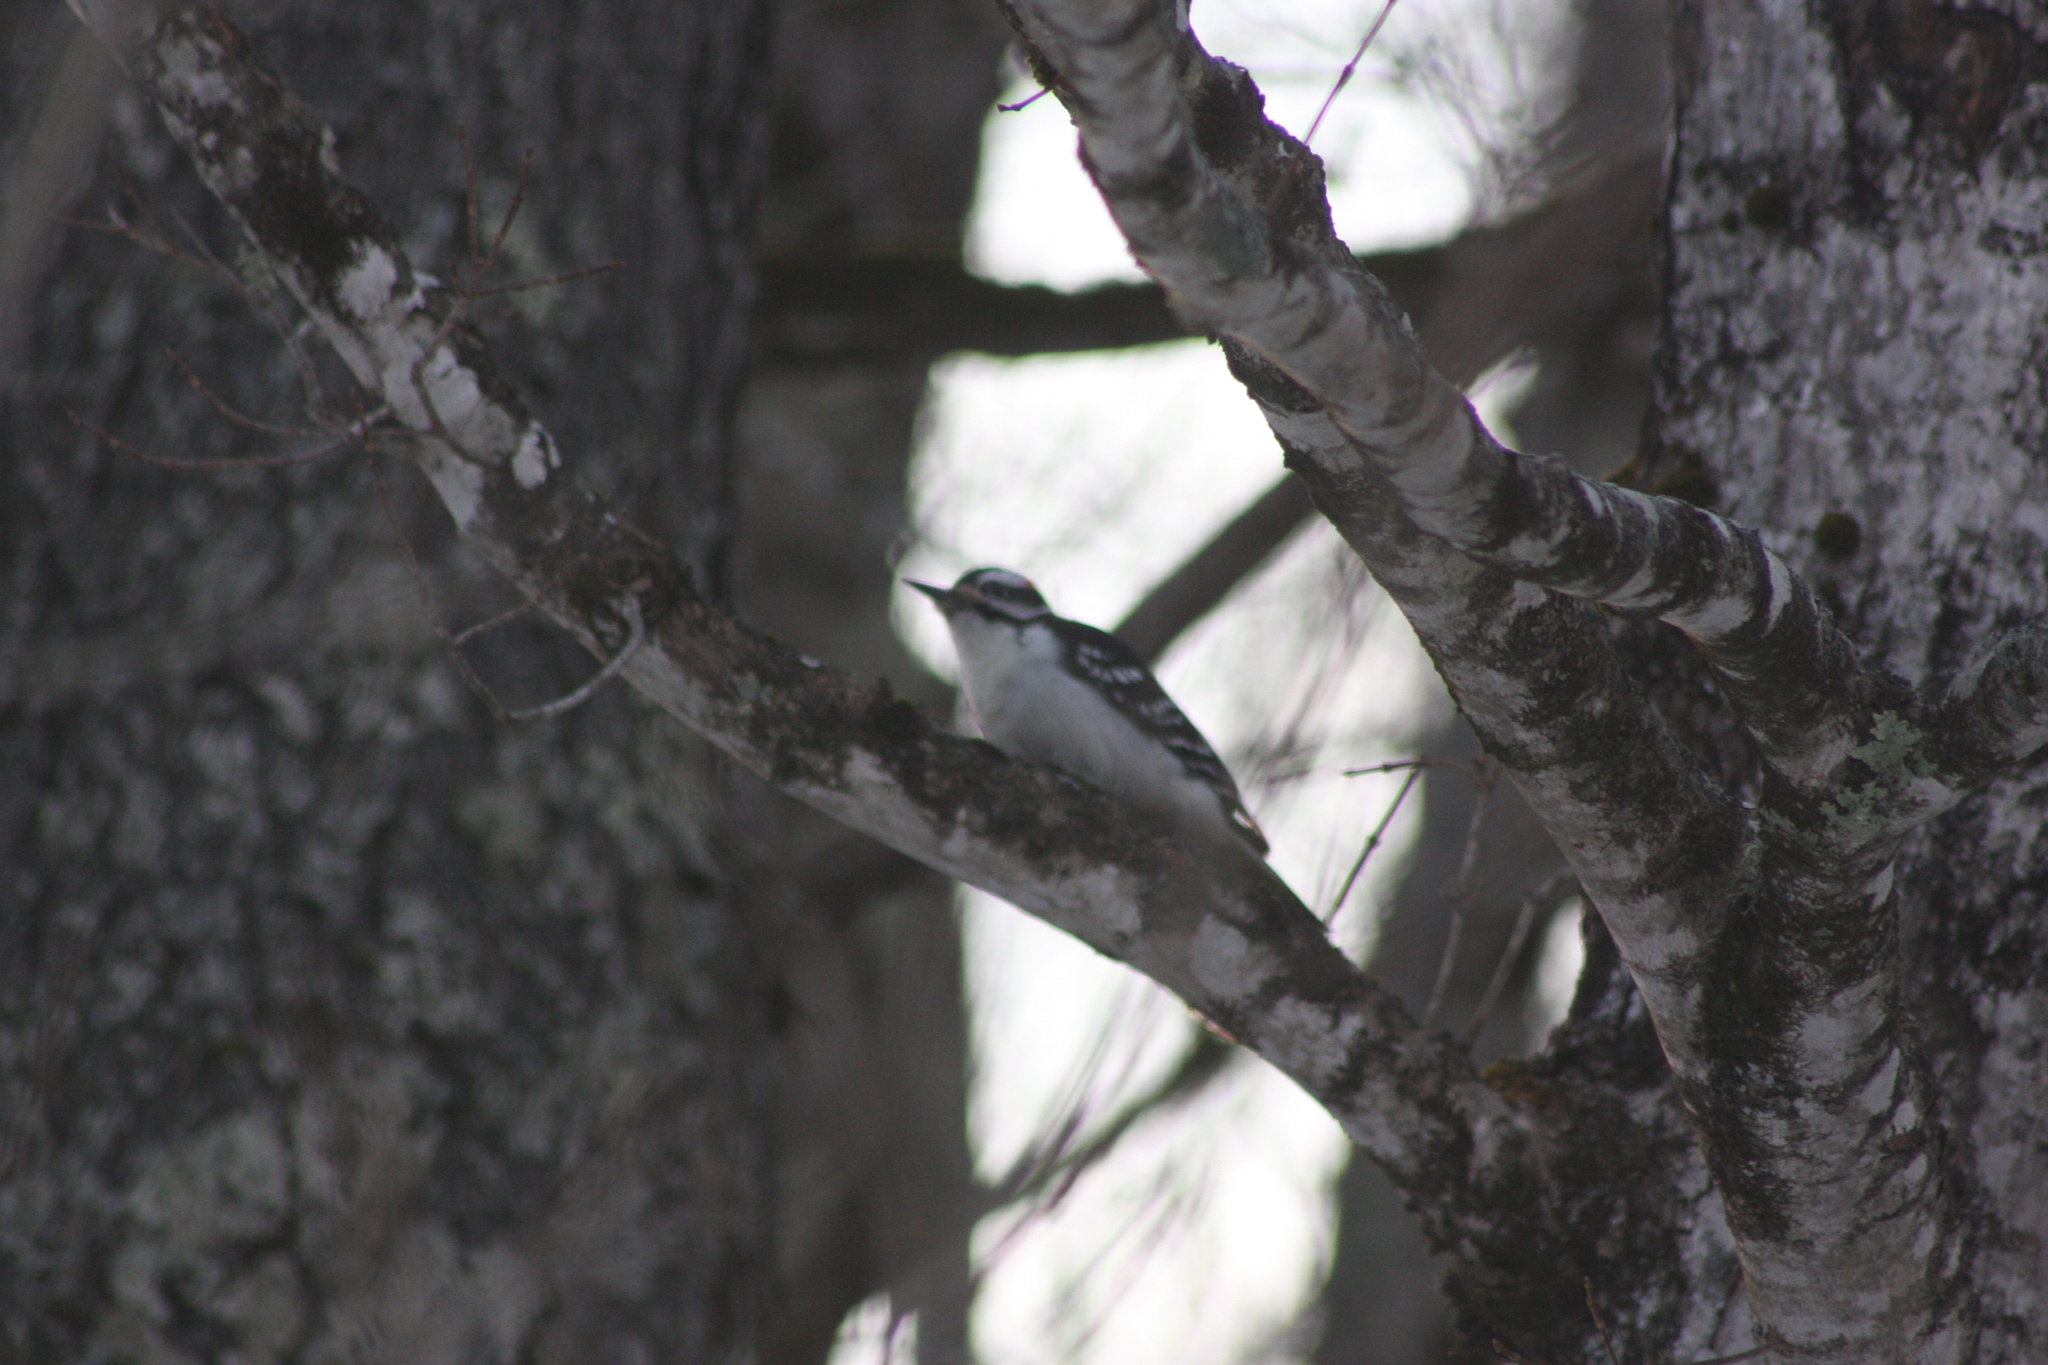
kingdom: Animalia
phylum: Chordata
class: Aves
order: Piciformes
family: Picidae
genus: Leuconotopicus
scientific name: Leuconotopicus villosus
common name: Hairy woodpecker
